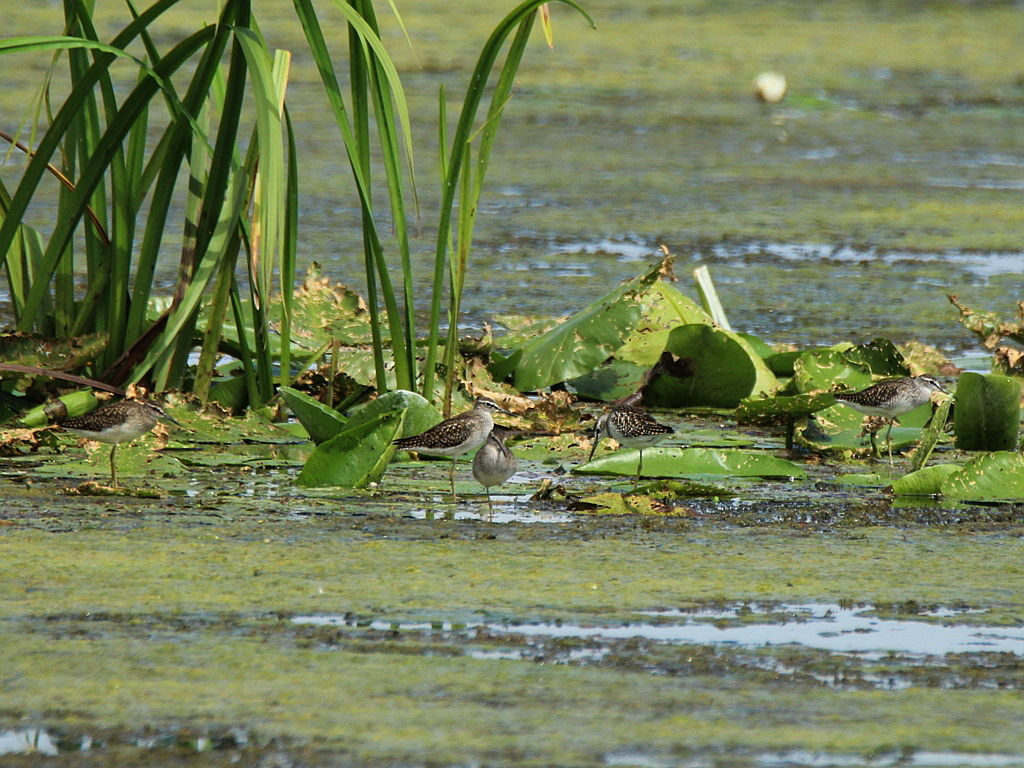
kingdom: Animalia
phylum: Chordata
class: Aves
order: Charadriiformes
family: Scolopacidae
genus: Tringa
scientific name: Tringa glareola
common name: Wood sandpiper
